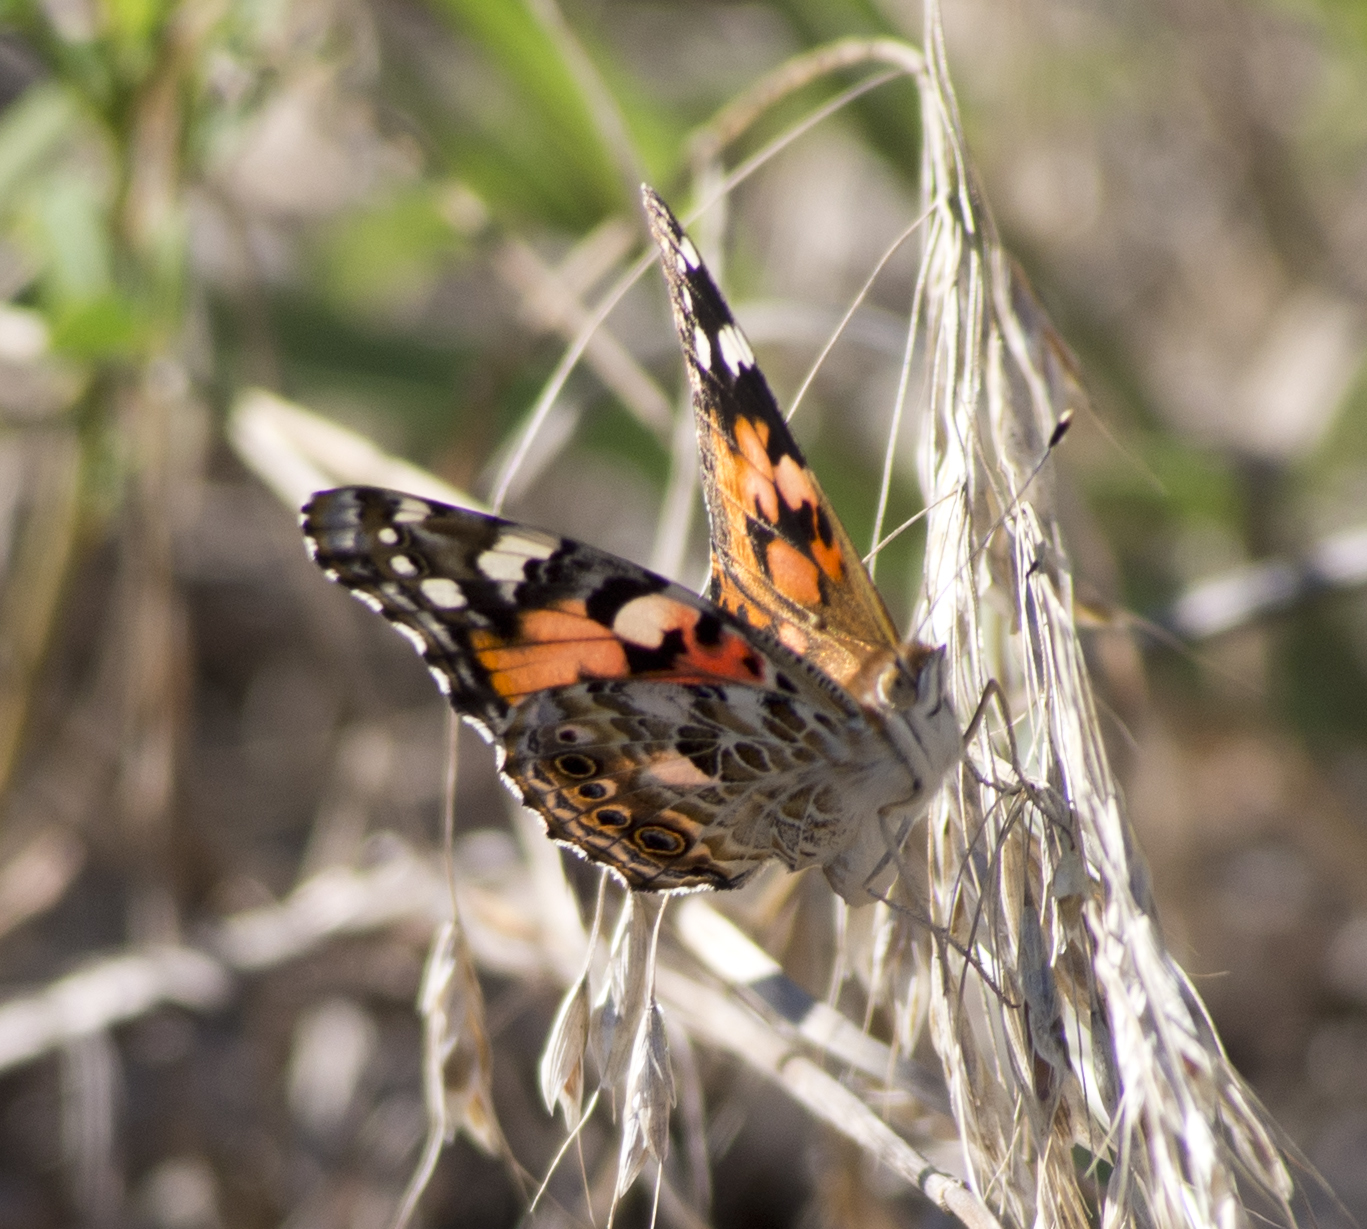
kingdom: Animalia
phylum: Arthropoda
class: Insecta
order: Lepidoptera
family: Nymphalidae
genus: Vanessa
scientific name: Vanessa cardui
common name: Painted lady
